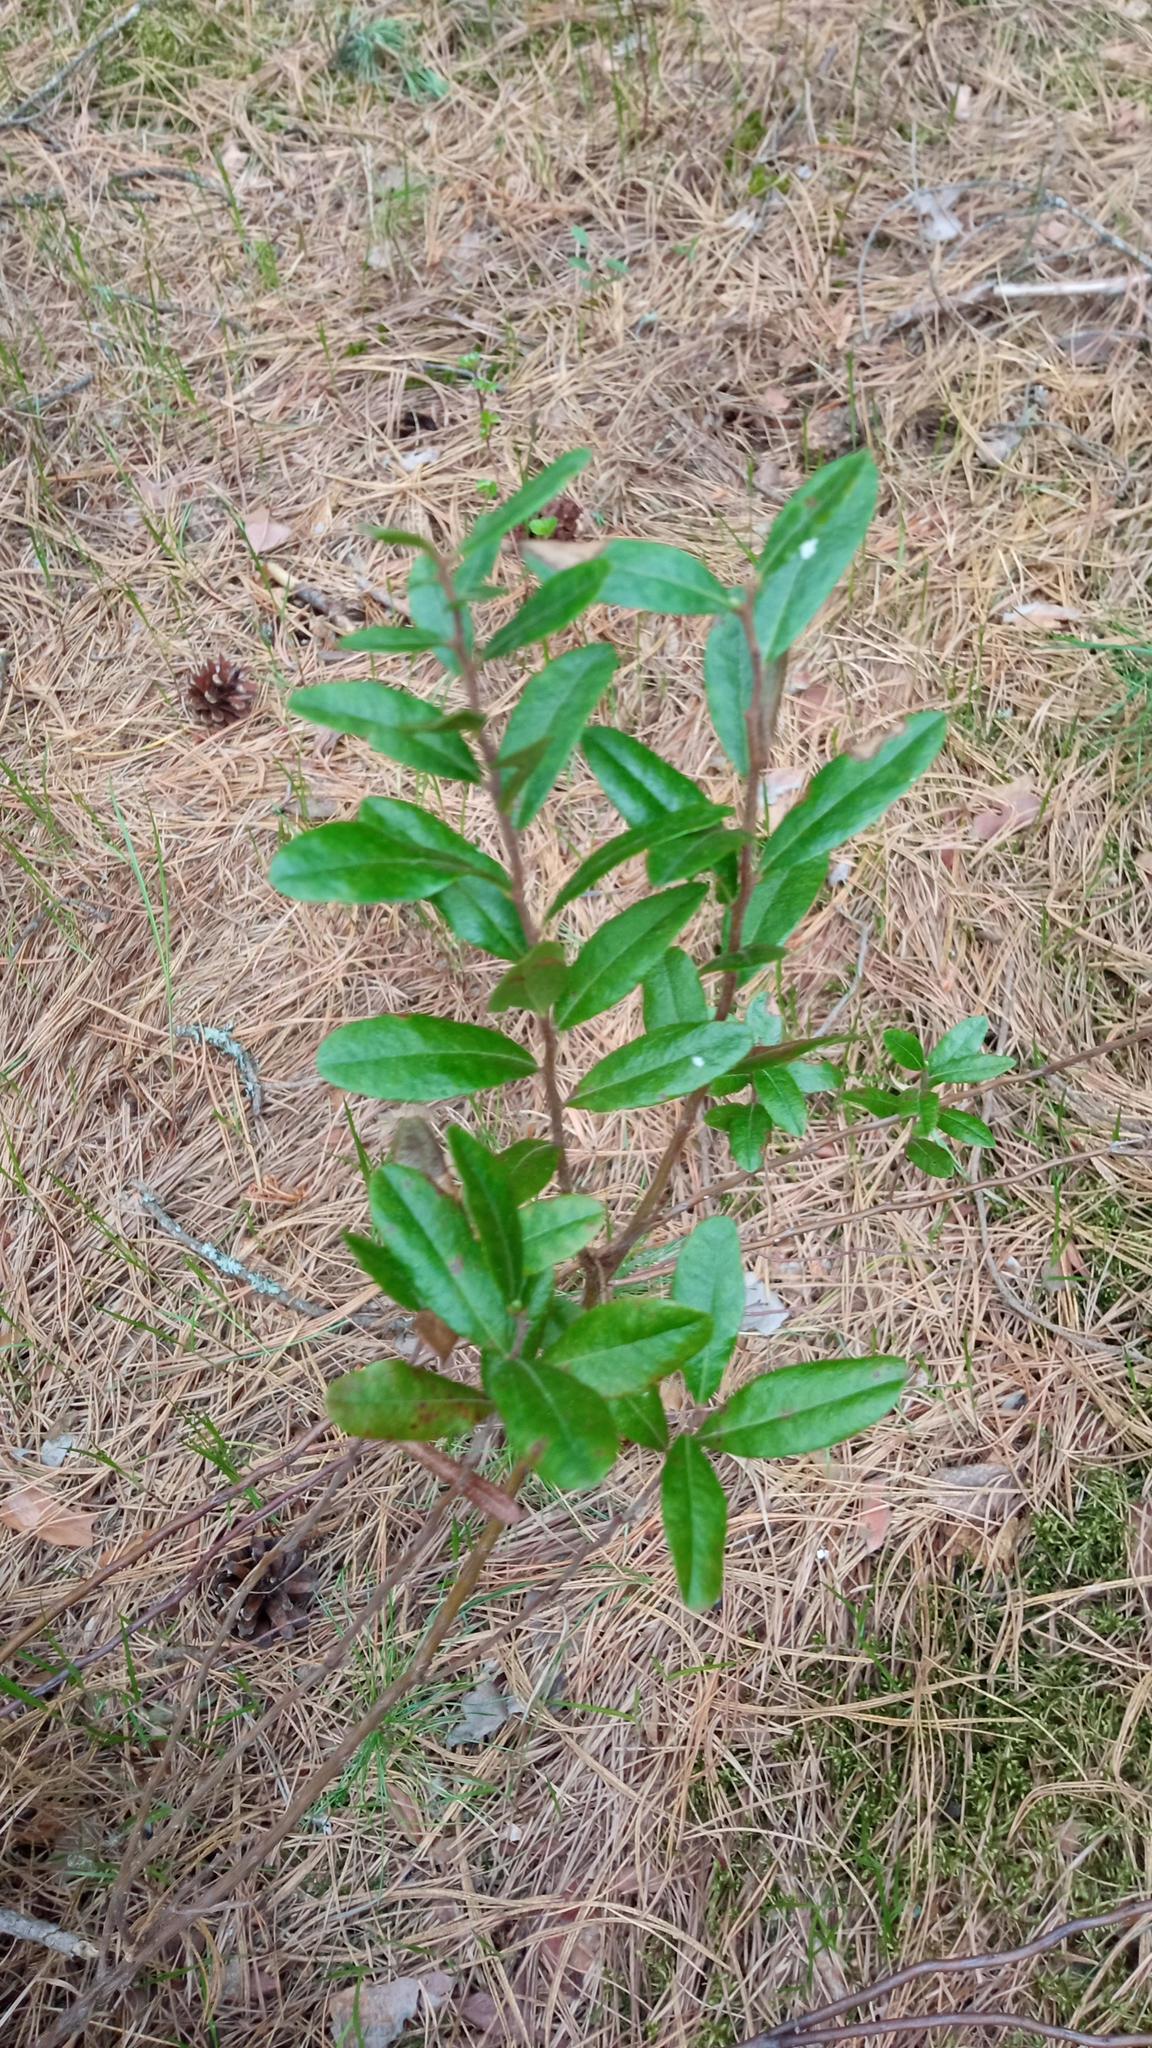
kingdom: Plantae
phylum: Tracheophyta
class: Magnoliopsida
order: Ericales
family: Ericaceae
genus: Chamaedaphne
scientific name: Chamaedaphne calyculata
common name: Leatherleaf
